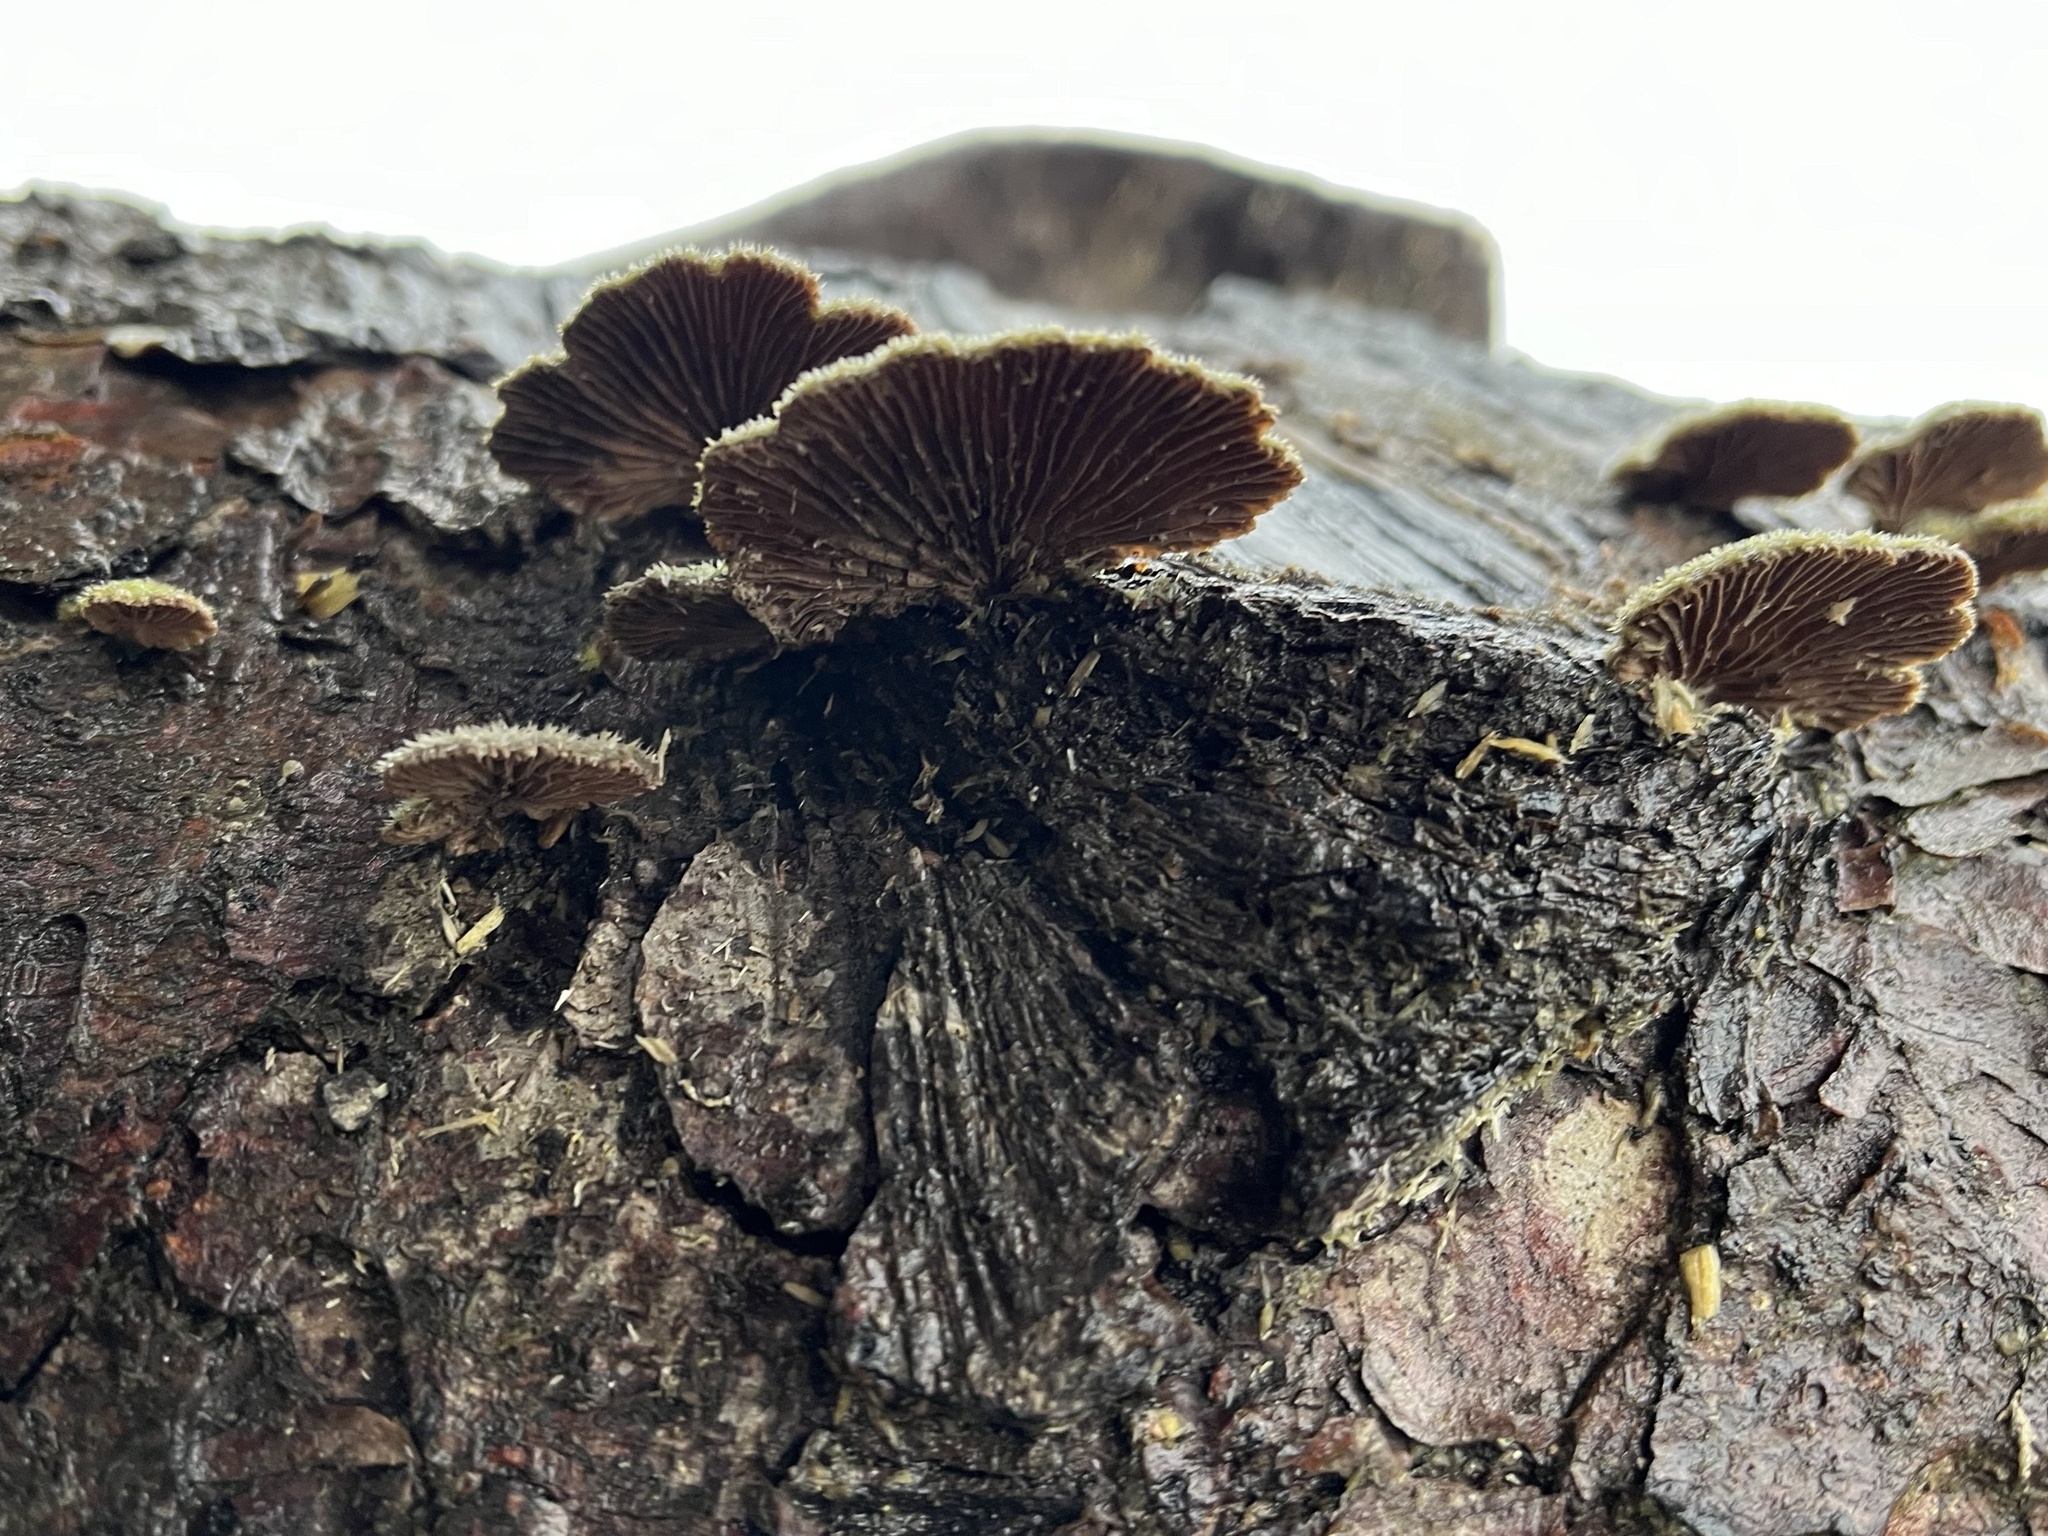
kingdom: Fungi
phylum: Basidiomycota
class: Agaricomycetes
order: Agaricales
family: Schizophyllaceae
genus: Schizophyllum
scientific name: Schizophyllum commune
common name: Common porecrust
